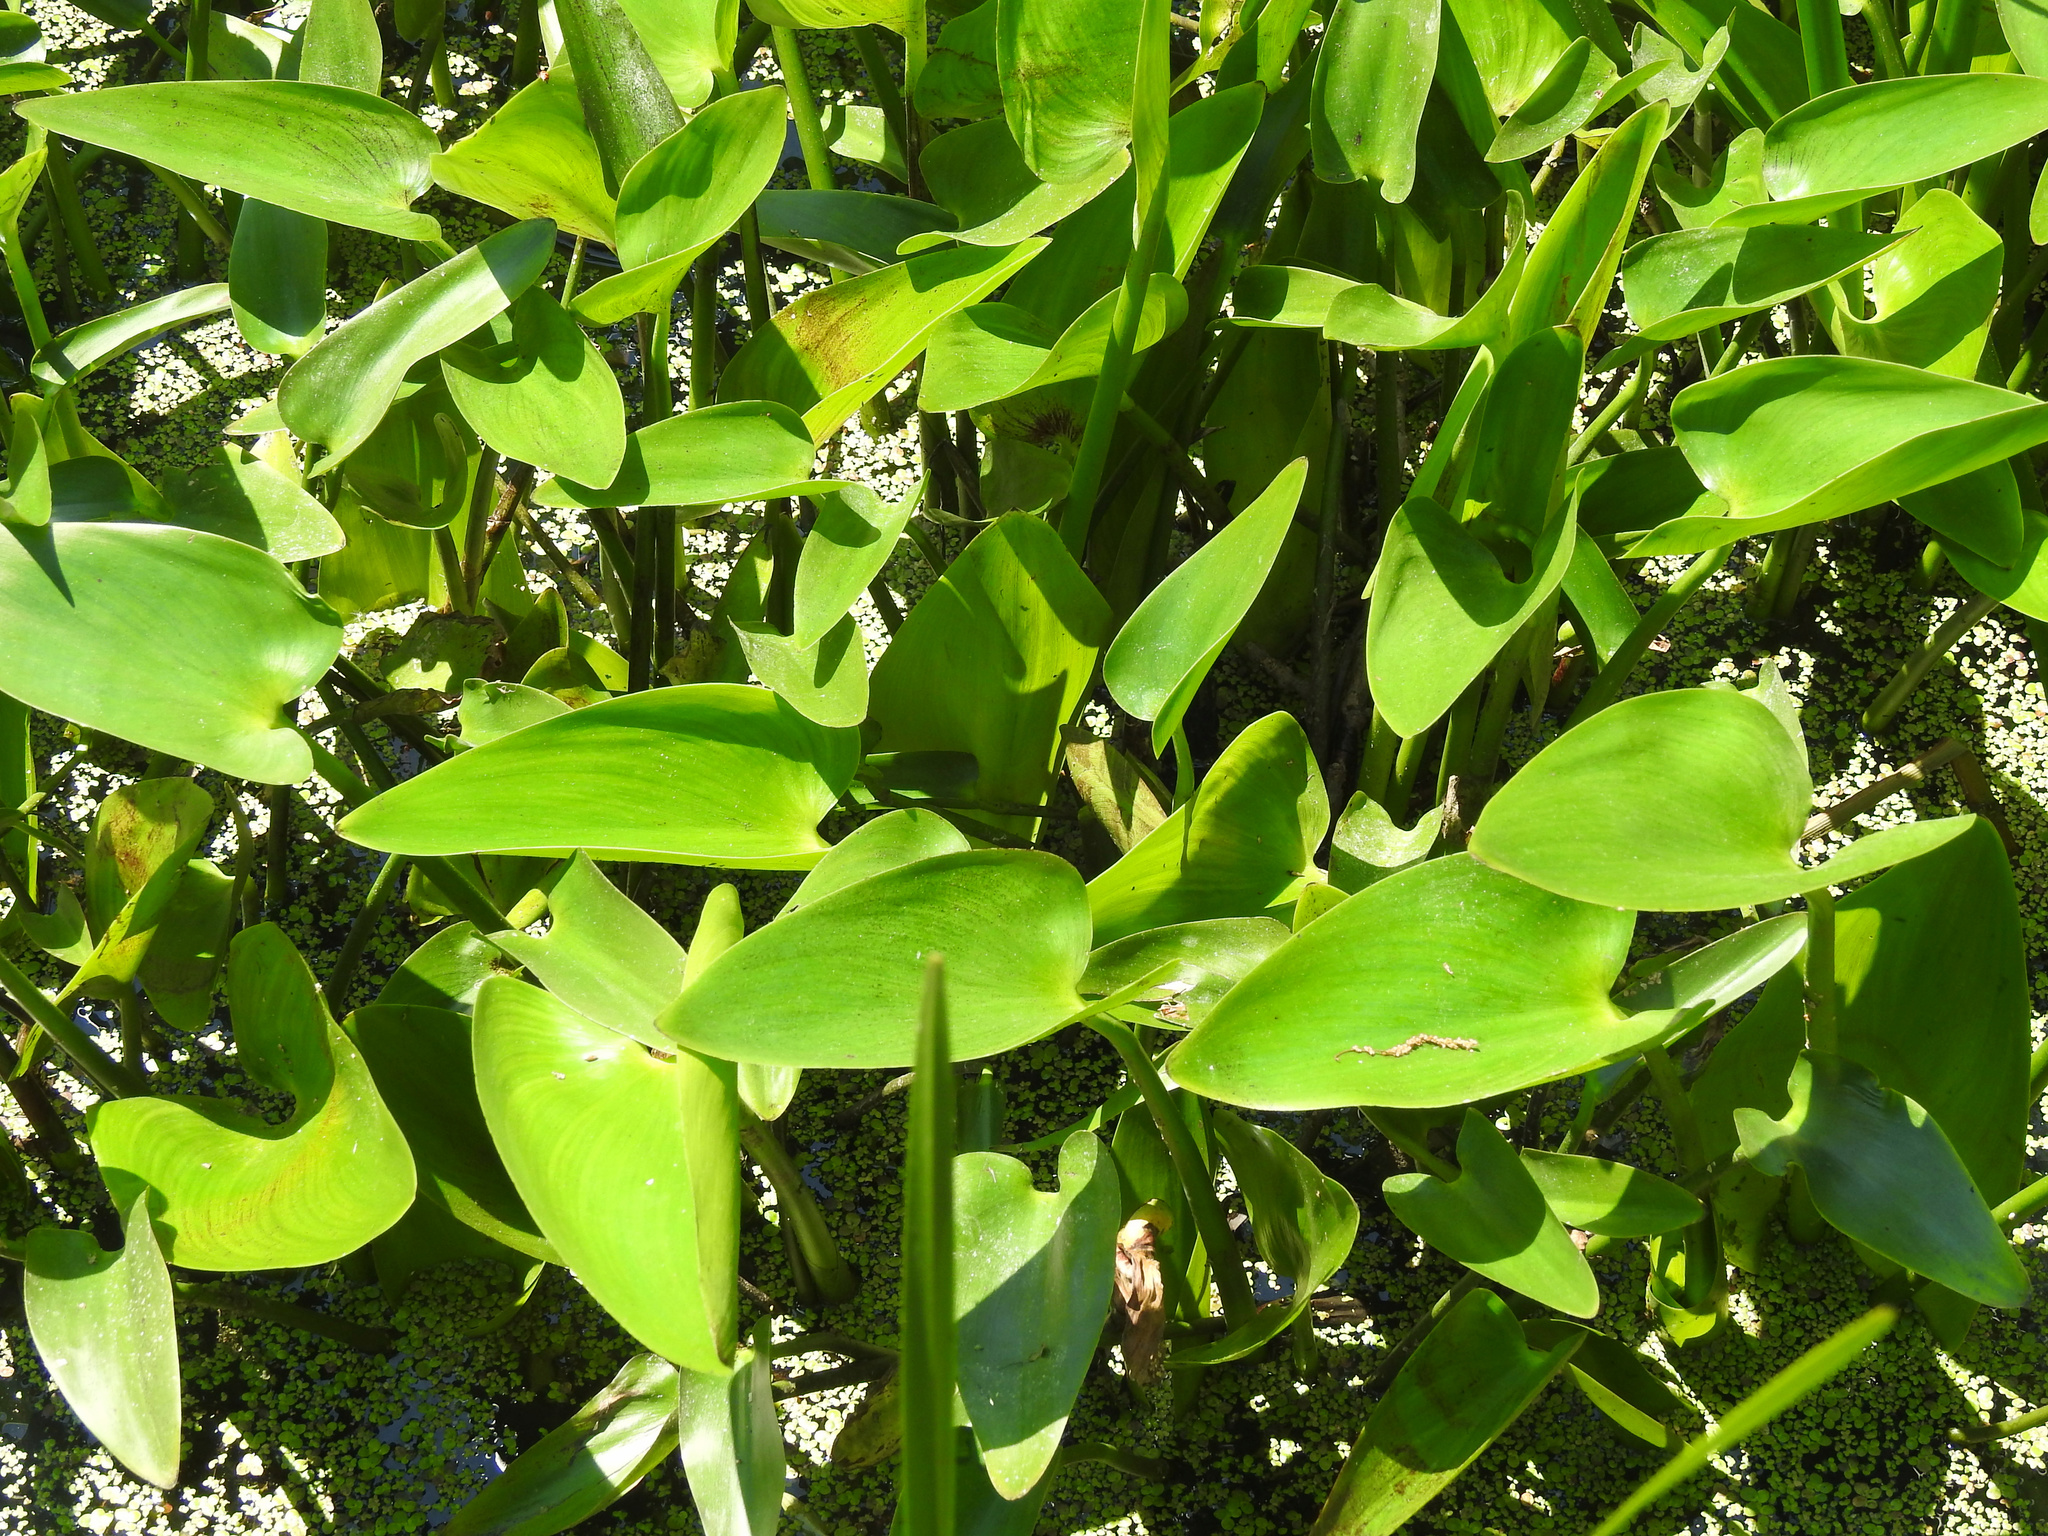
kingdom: Plantae
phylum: Tracheophyta
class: Liliopsida
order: Commelinales
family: Pontederiaceae
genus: Pontederia
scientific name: Pontederia cordata
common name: Pickerelweed
